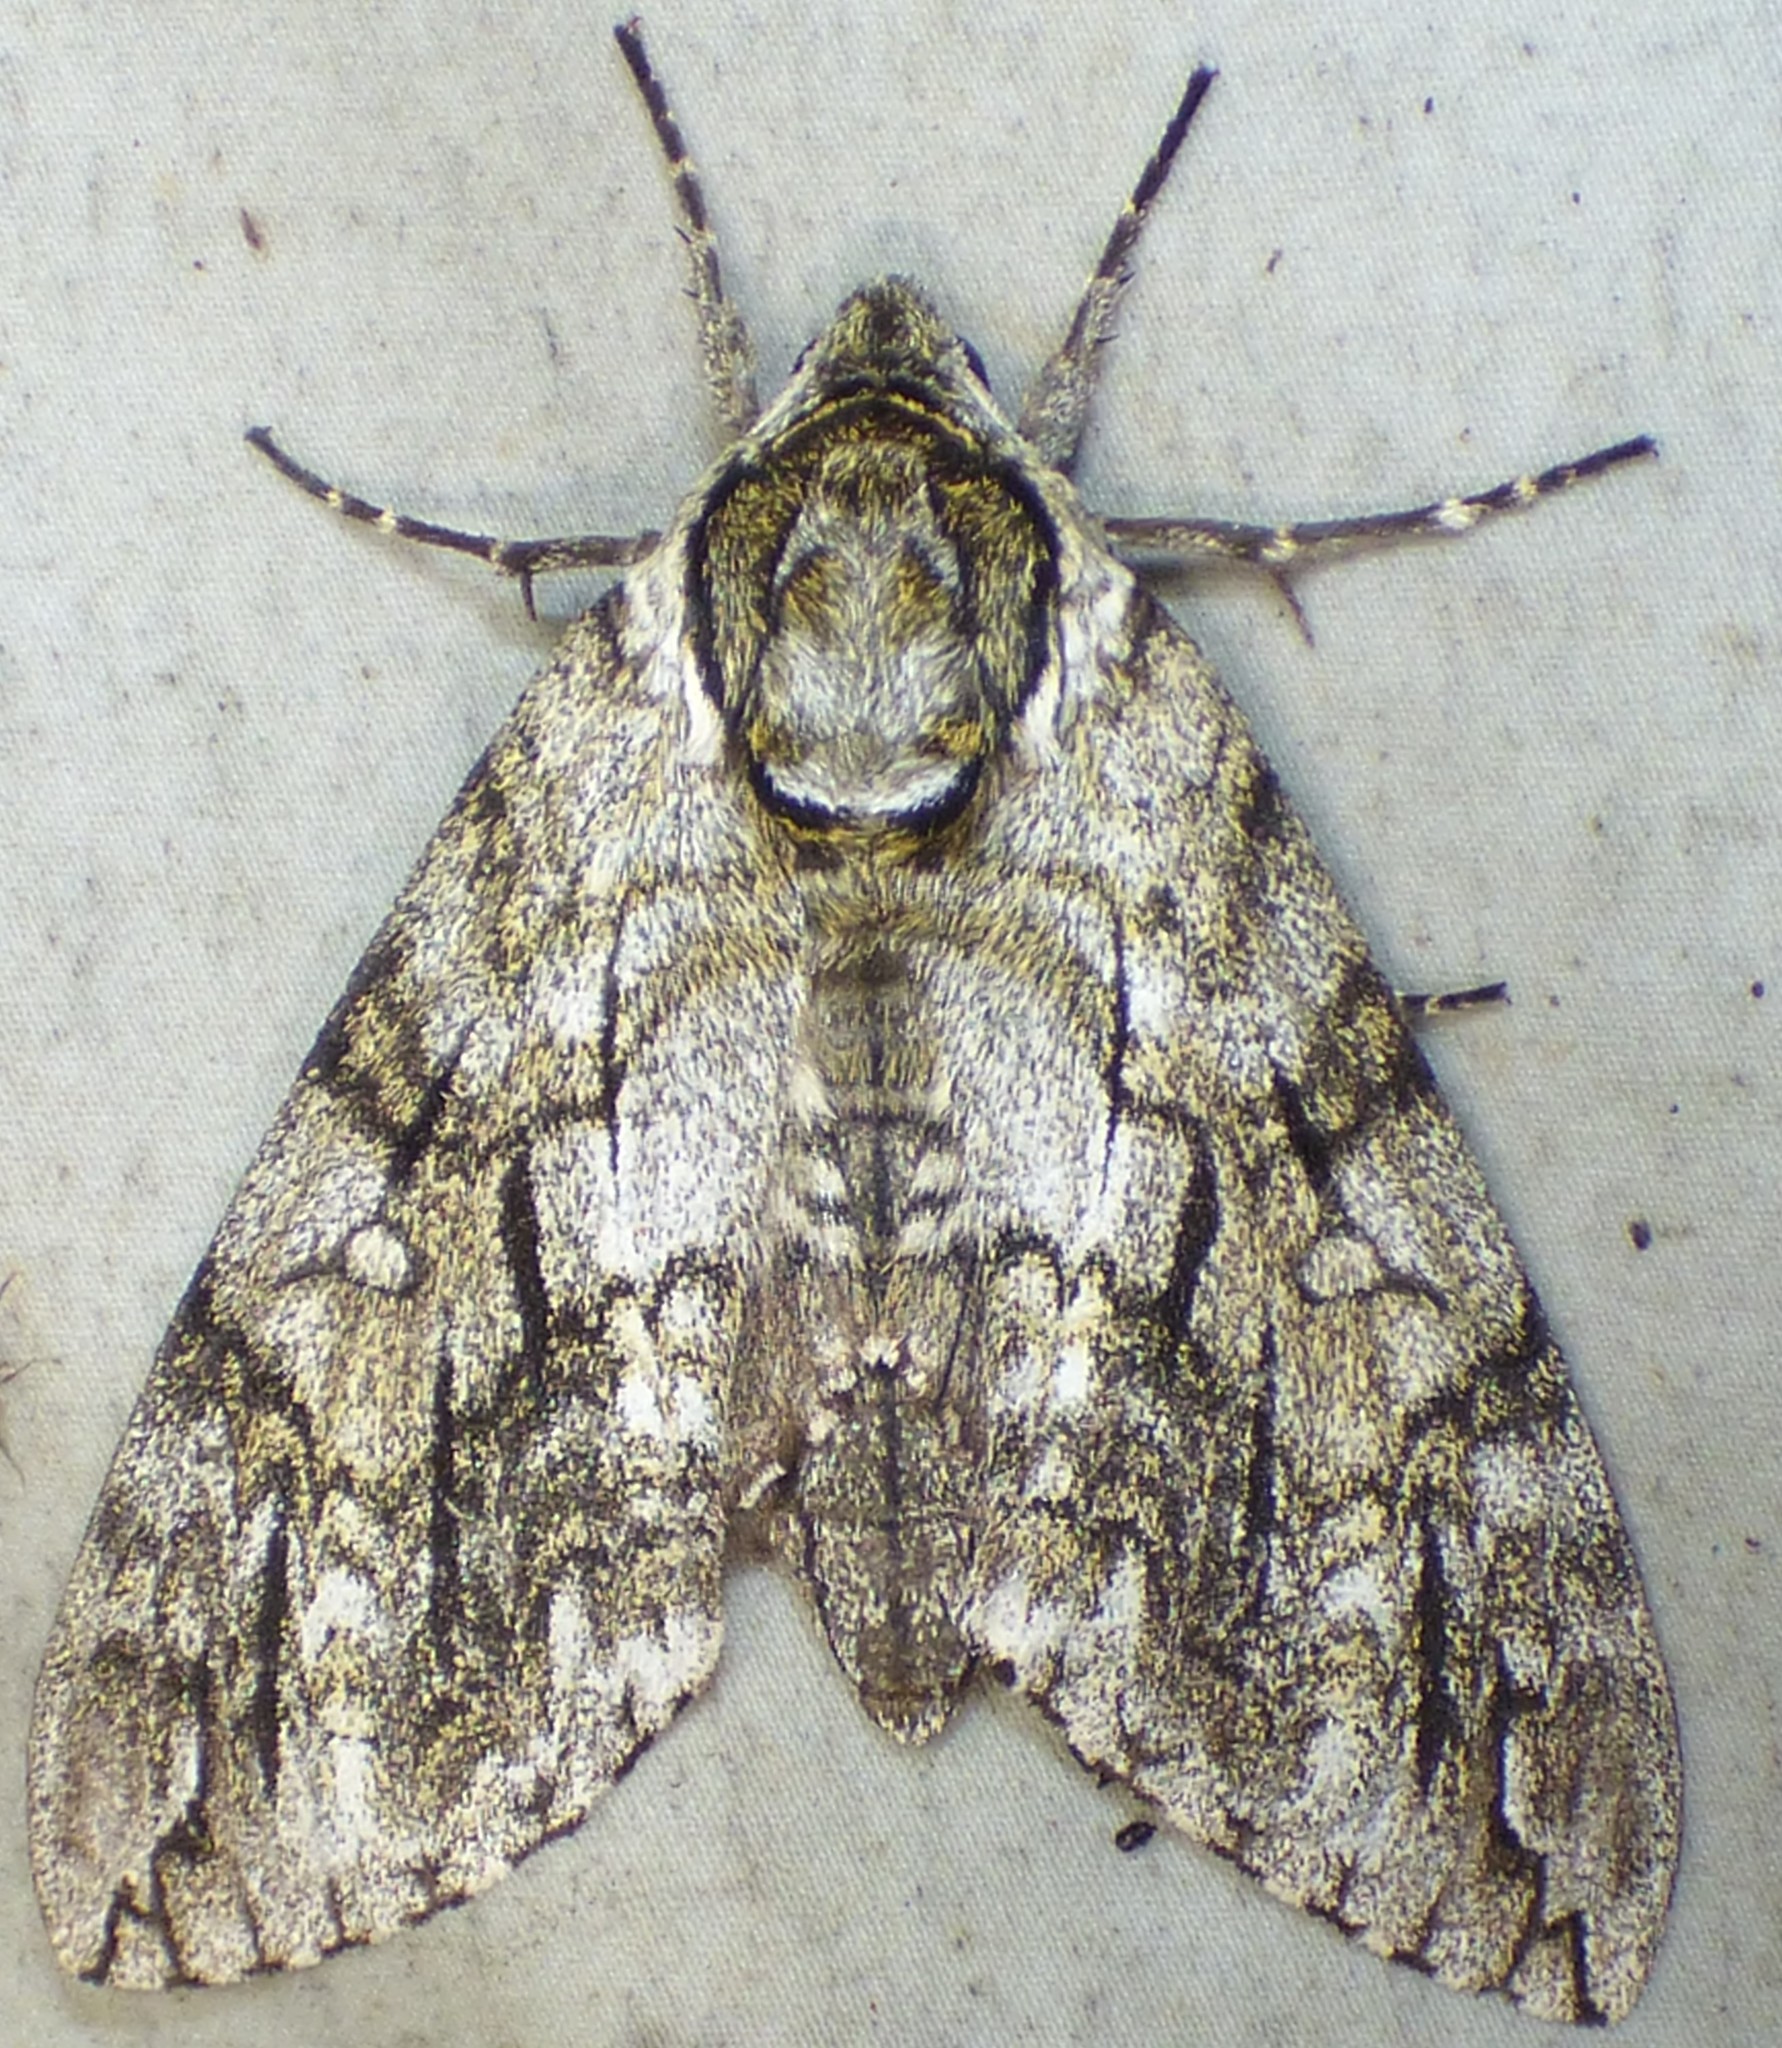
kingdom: Animalia
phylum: Arthropoda
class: Insecta
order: Lepidoptera
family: Sphingidae
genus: Ceratomia
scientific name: Ceratomia undulosa
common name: Waved sphinx
